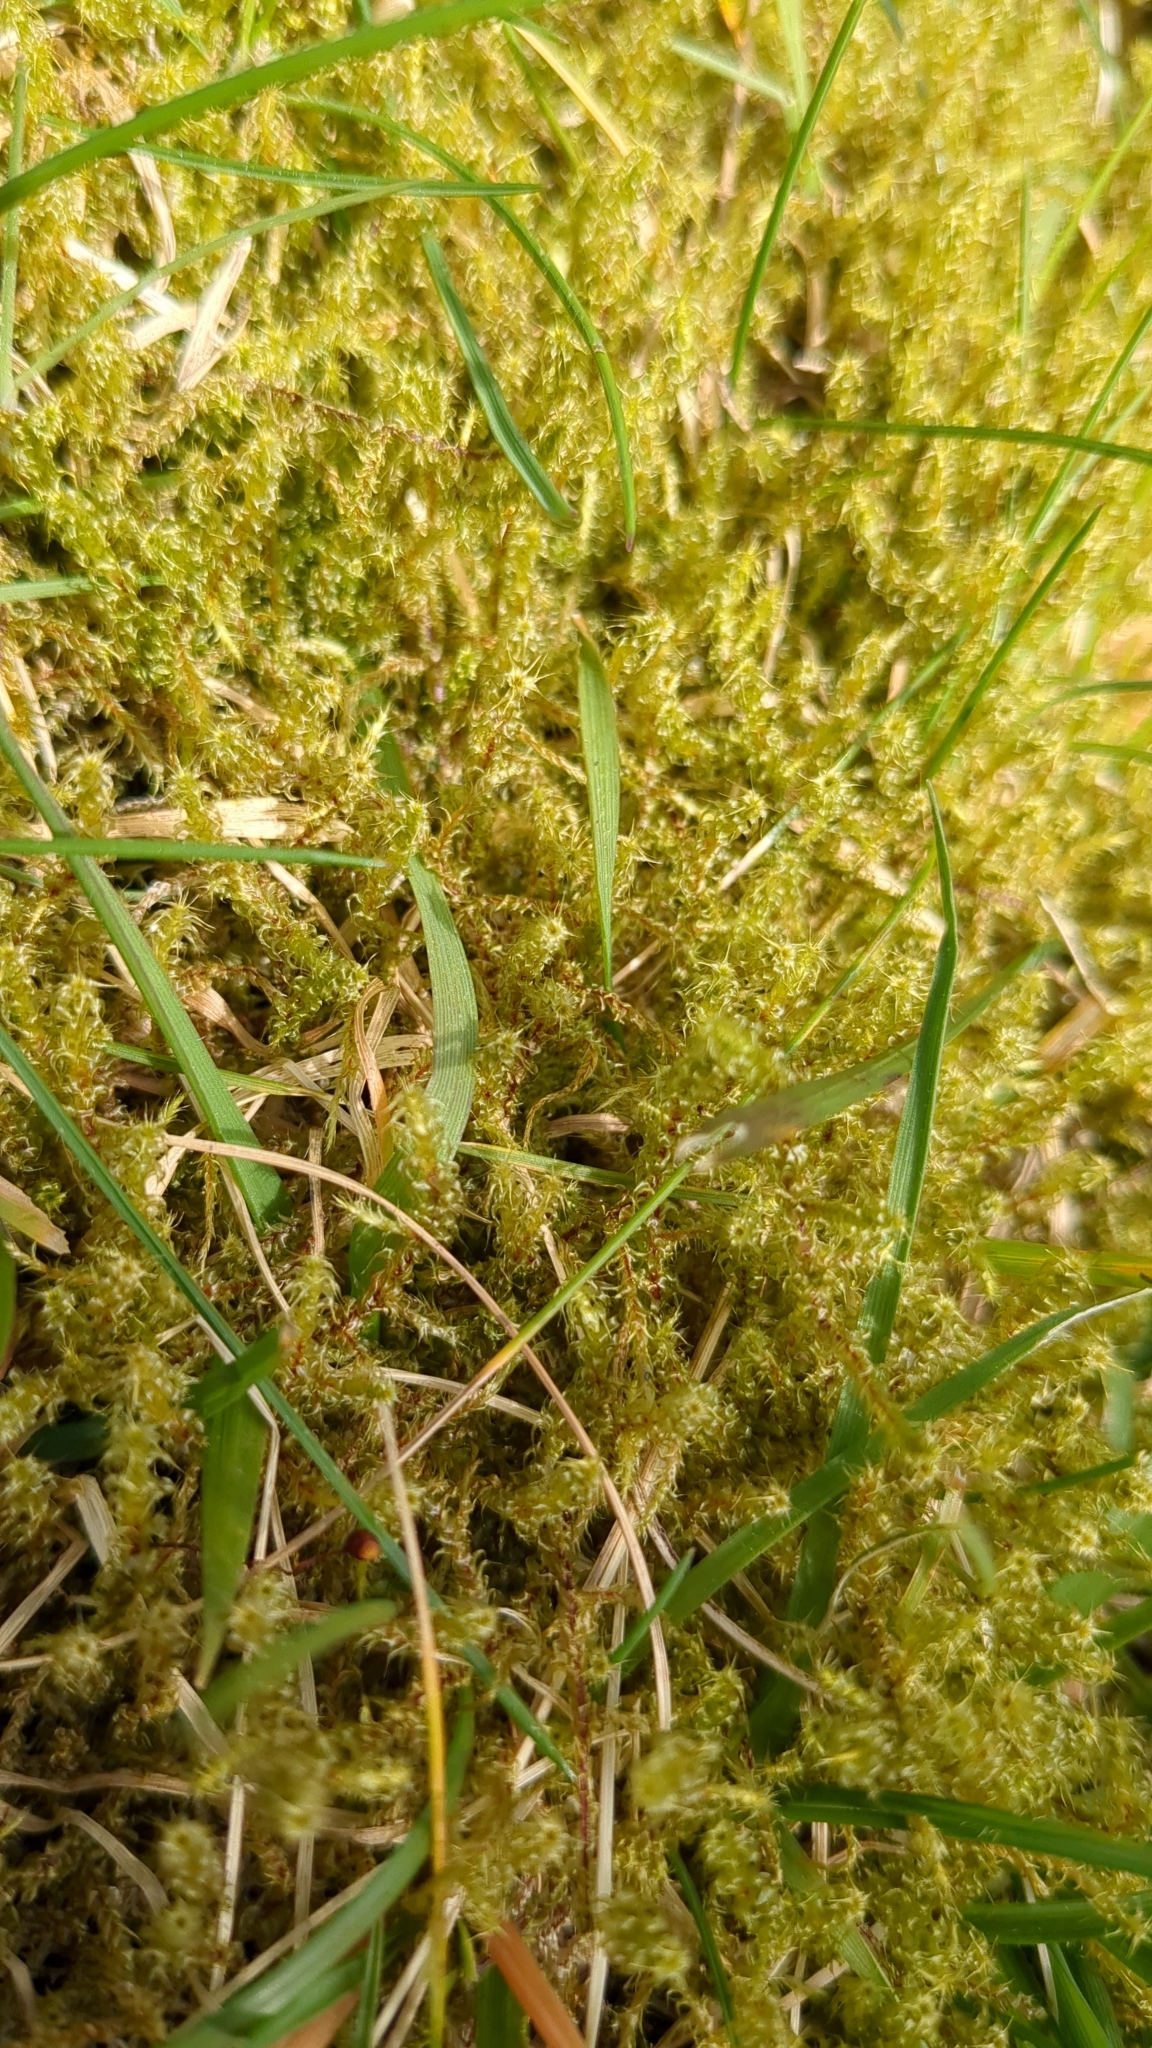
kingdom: Plantae
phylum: Bryophyta
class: Bryopsida
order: Hypnales
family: Hylocomiaceae
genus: Rhytidiadelphus
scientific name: Rhytidiadelphus squarrosus
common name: Springy turf-moss
